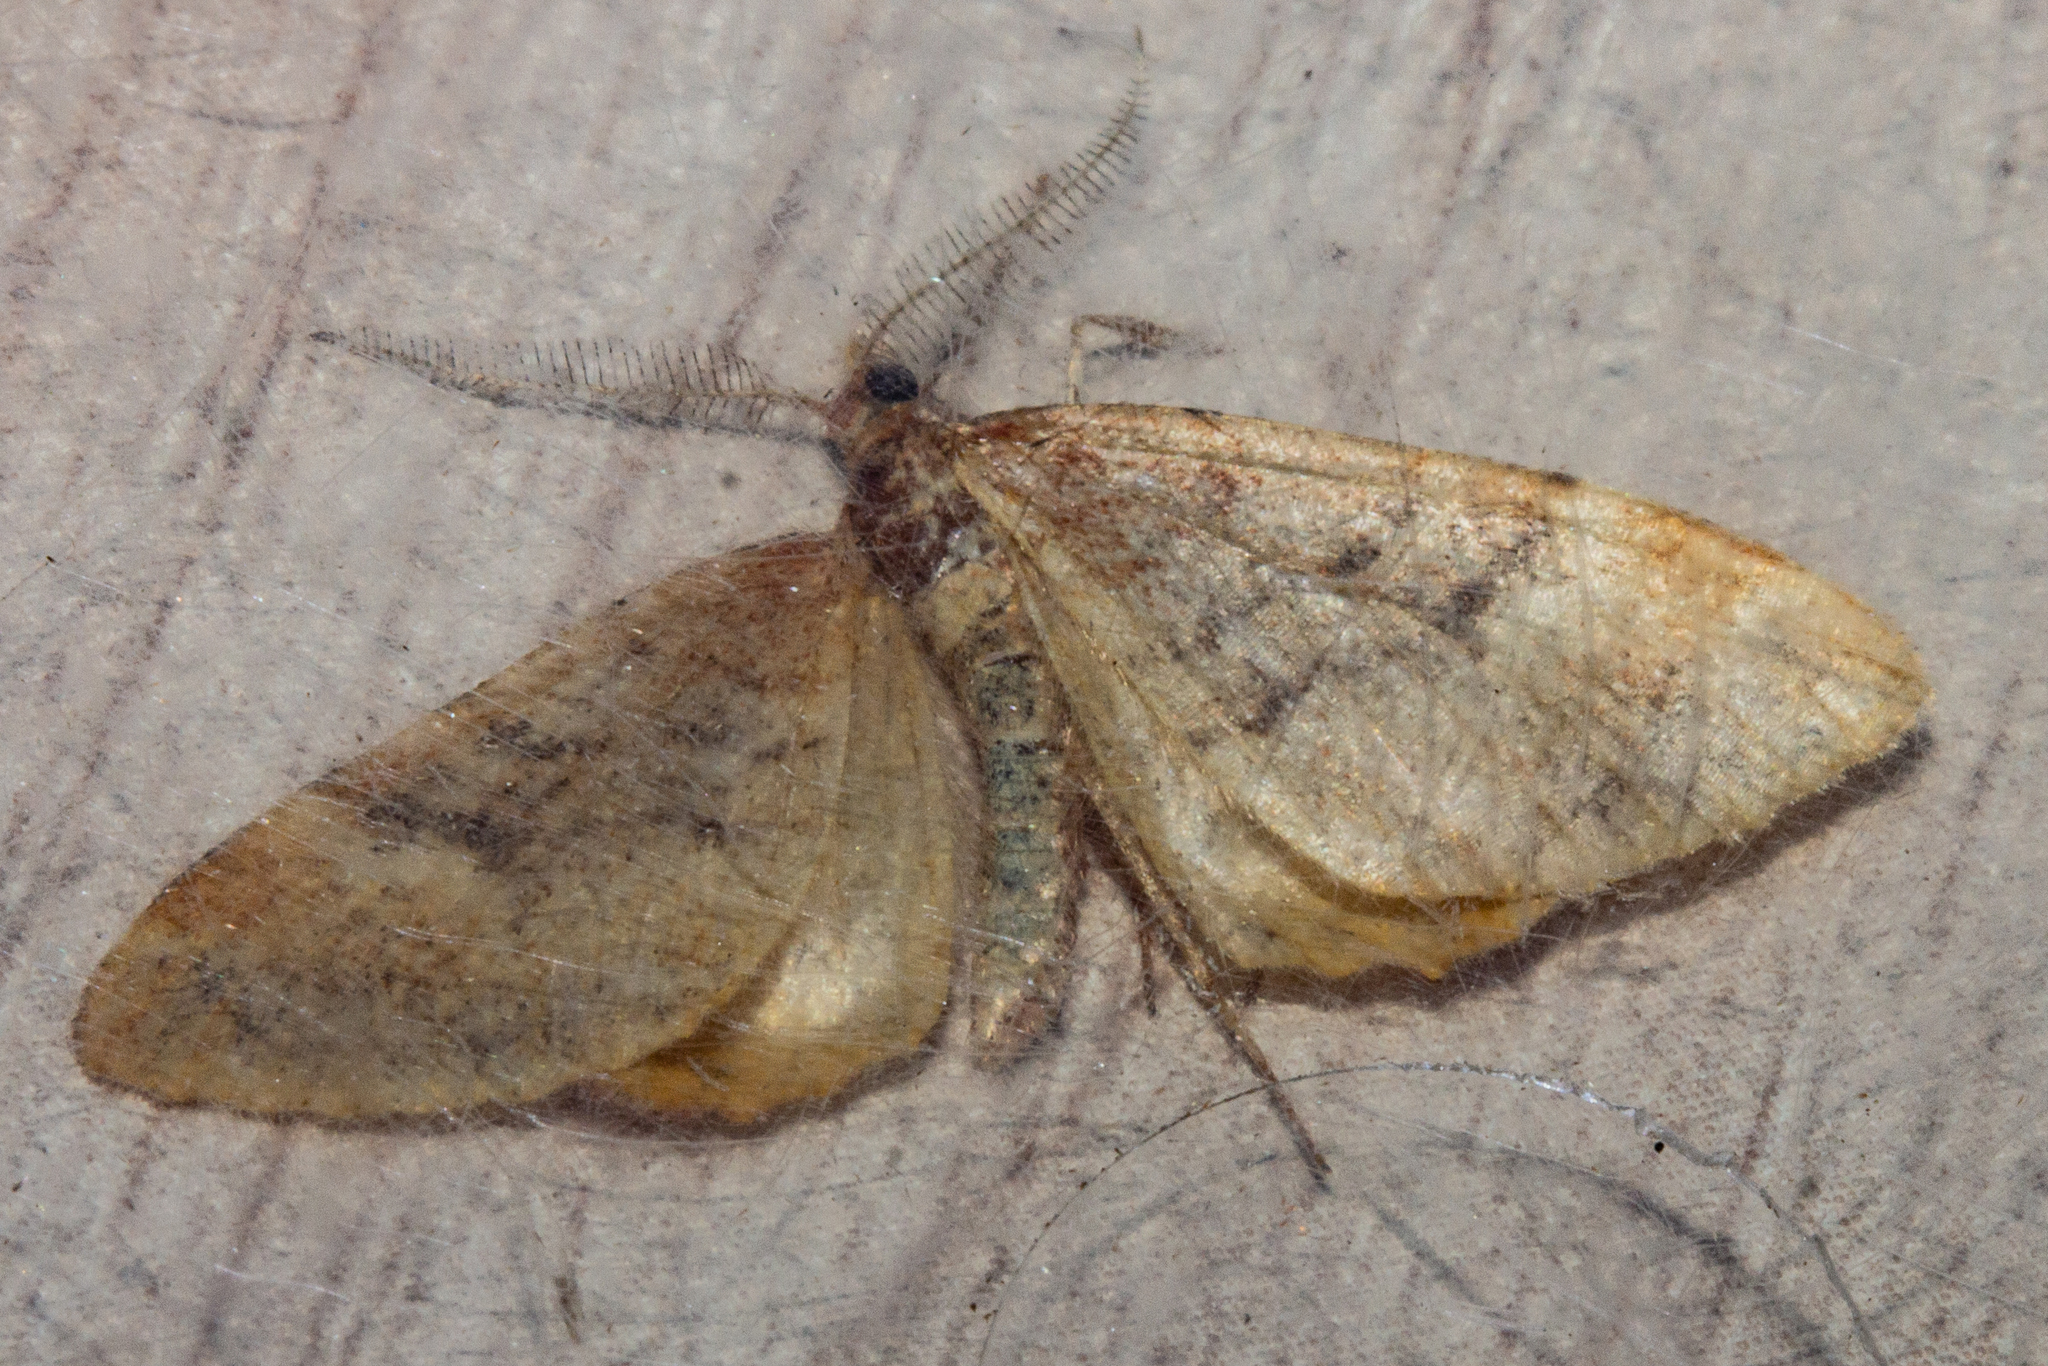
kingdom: Animalia
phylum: Arthropoda
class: Insecta
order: Lepidoptera
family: Geometridae
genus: Asaphodes
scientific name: Asaphodes recta
